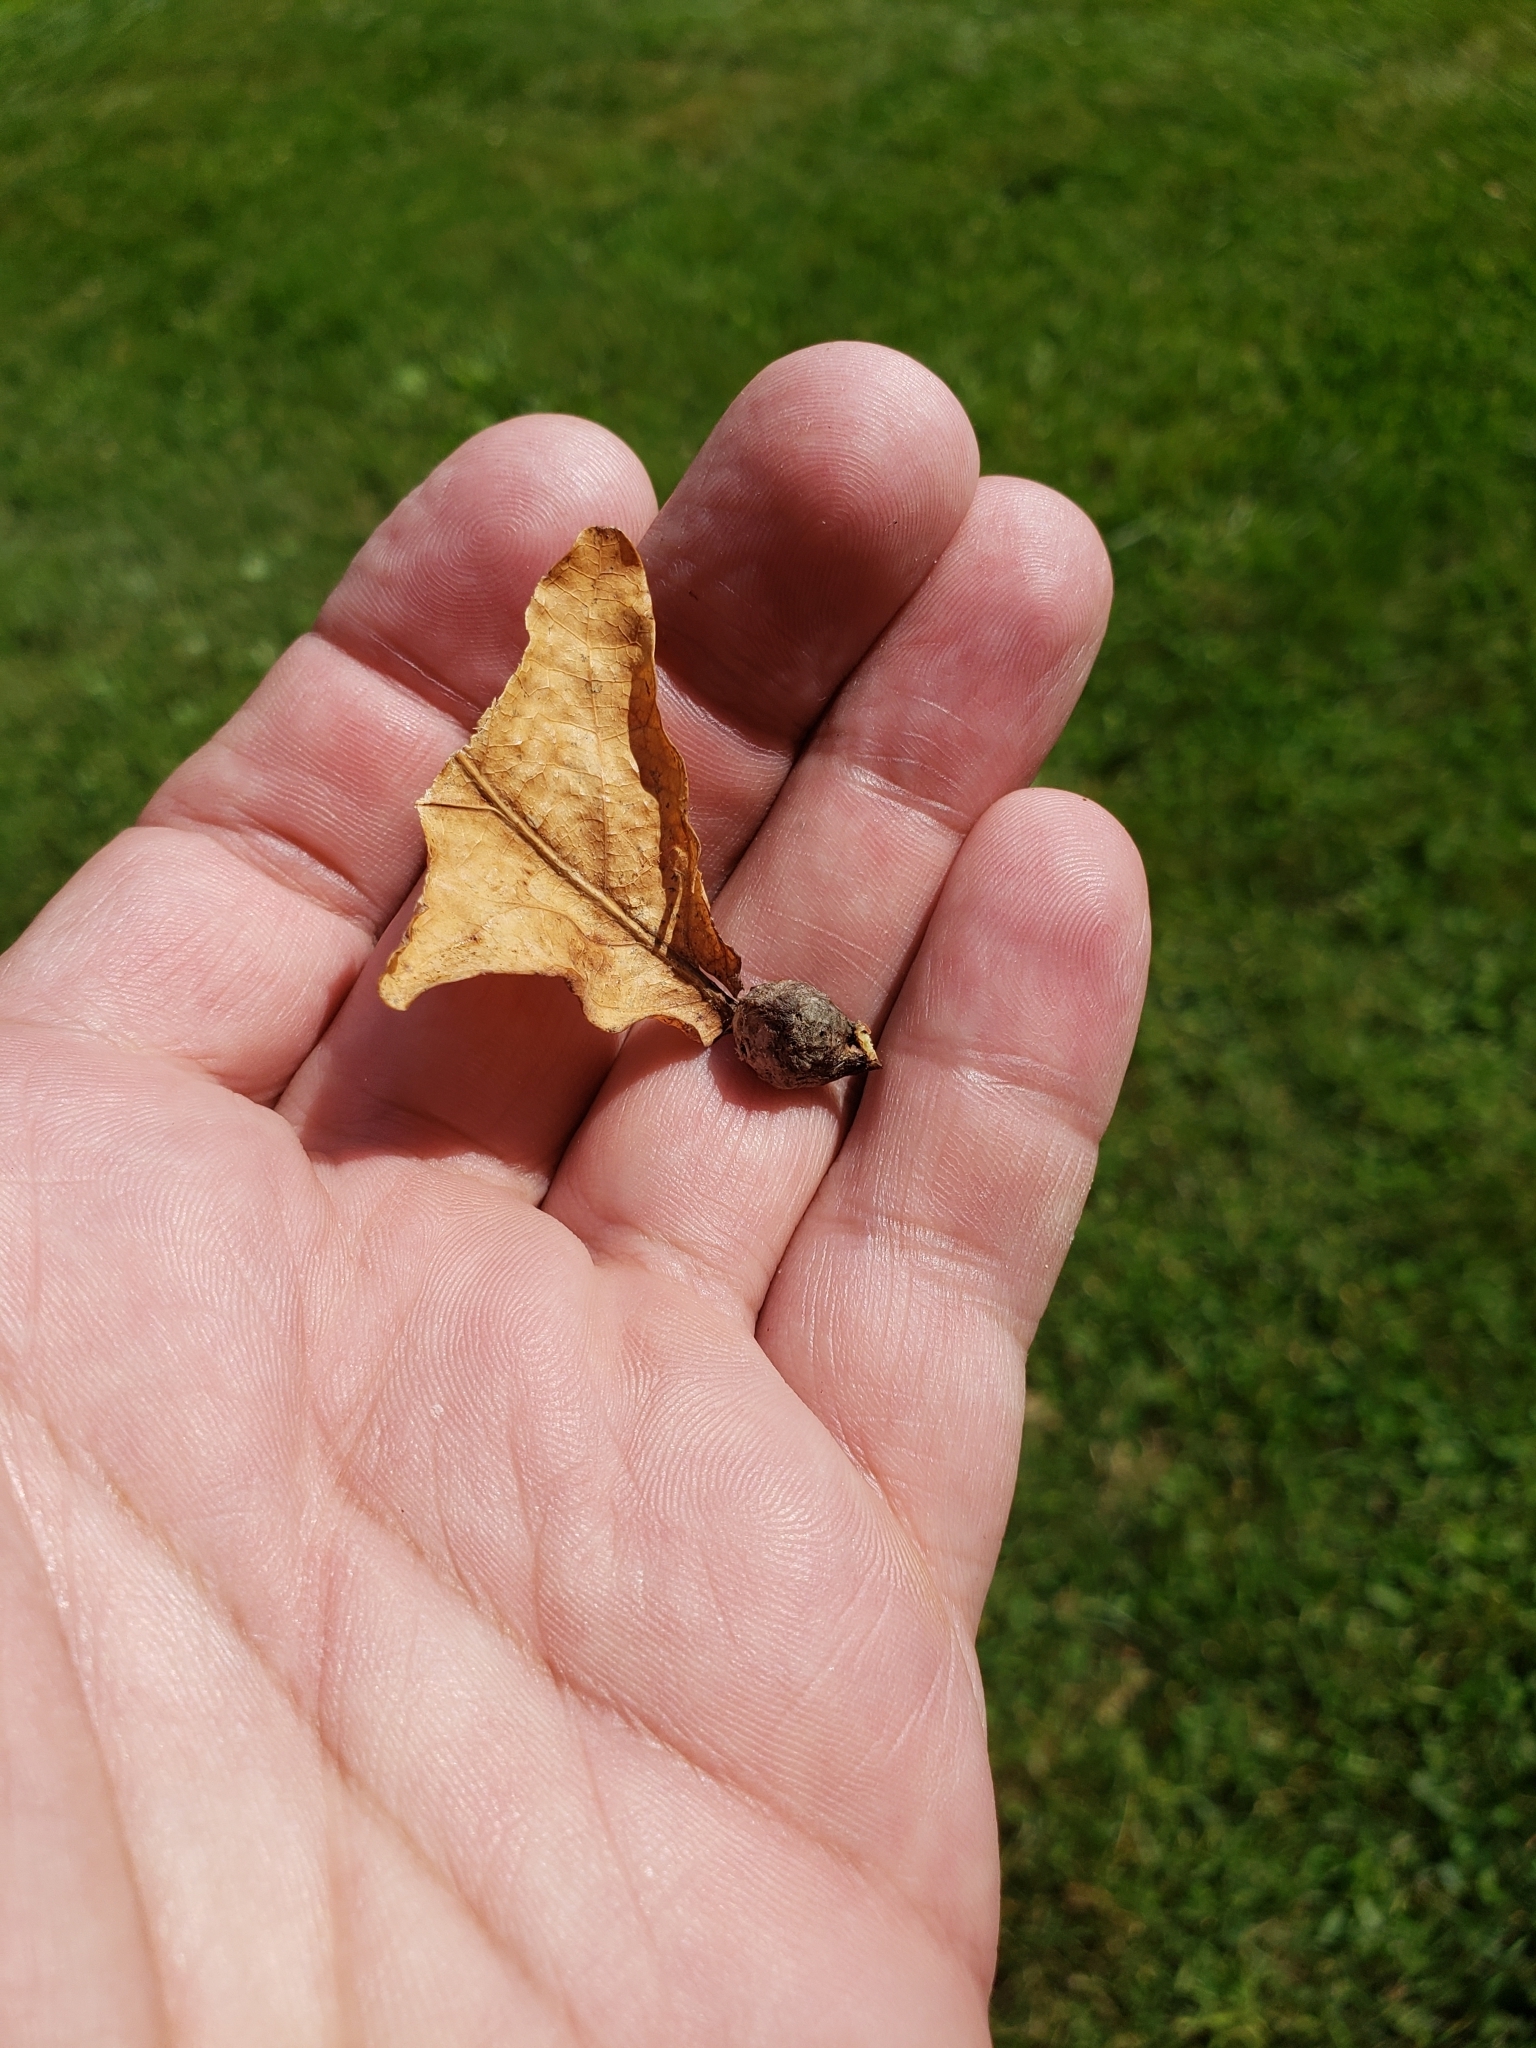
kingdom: Animalia
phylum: Arthropoda
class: Insecta
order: Hymenoptera
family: Cynipidae
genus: Andricus
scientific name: Andricus
